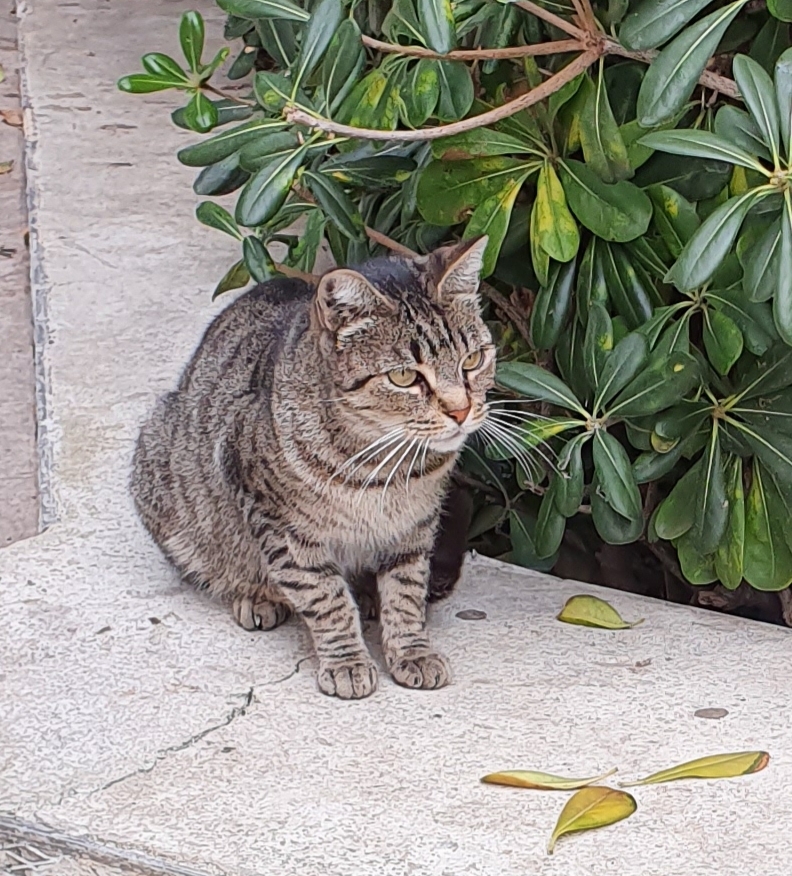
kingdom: Animalia
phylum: Chordata
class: Mammalia
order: Carnivora
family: Felidae
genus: Felis
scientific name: Felis catus
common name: Domestic cat
